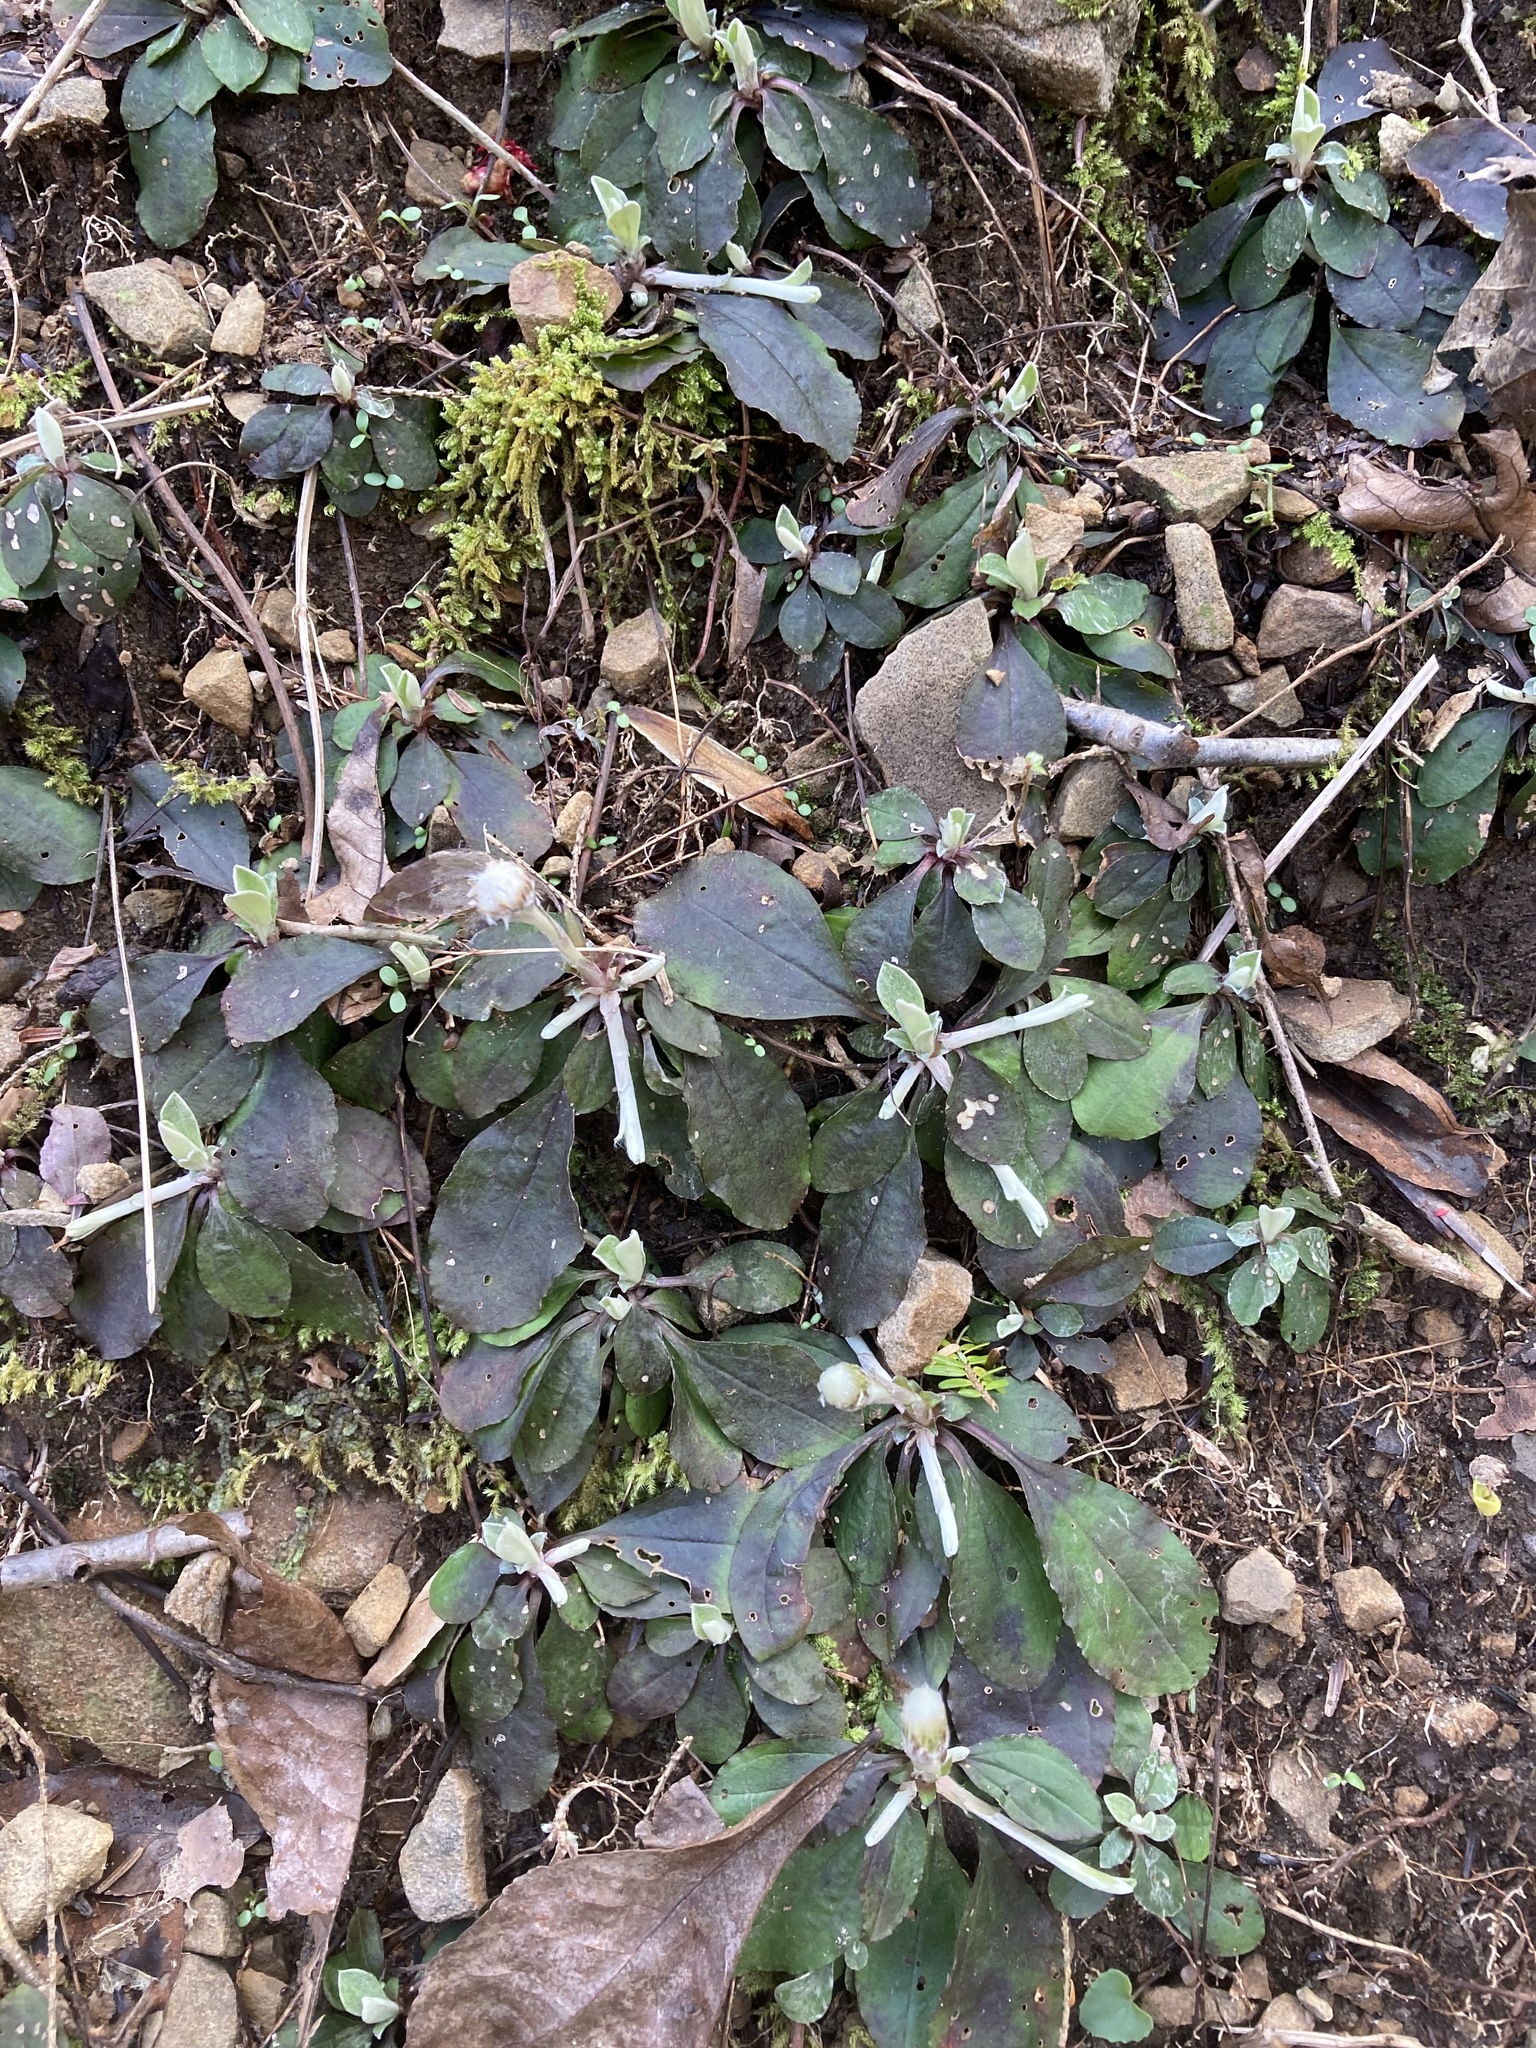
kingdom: Plantae
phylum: Tracheophyta
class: Magnoliopsida
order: Asterales
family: Asteraceae
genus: Antennaria
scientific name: Antennaria solitaria
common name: Single-head pussytoes
